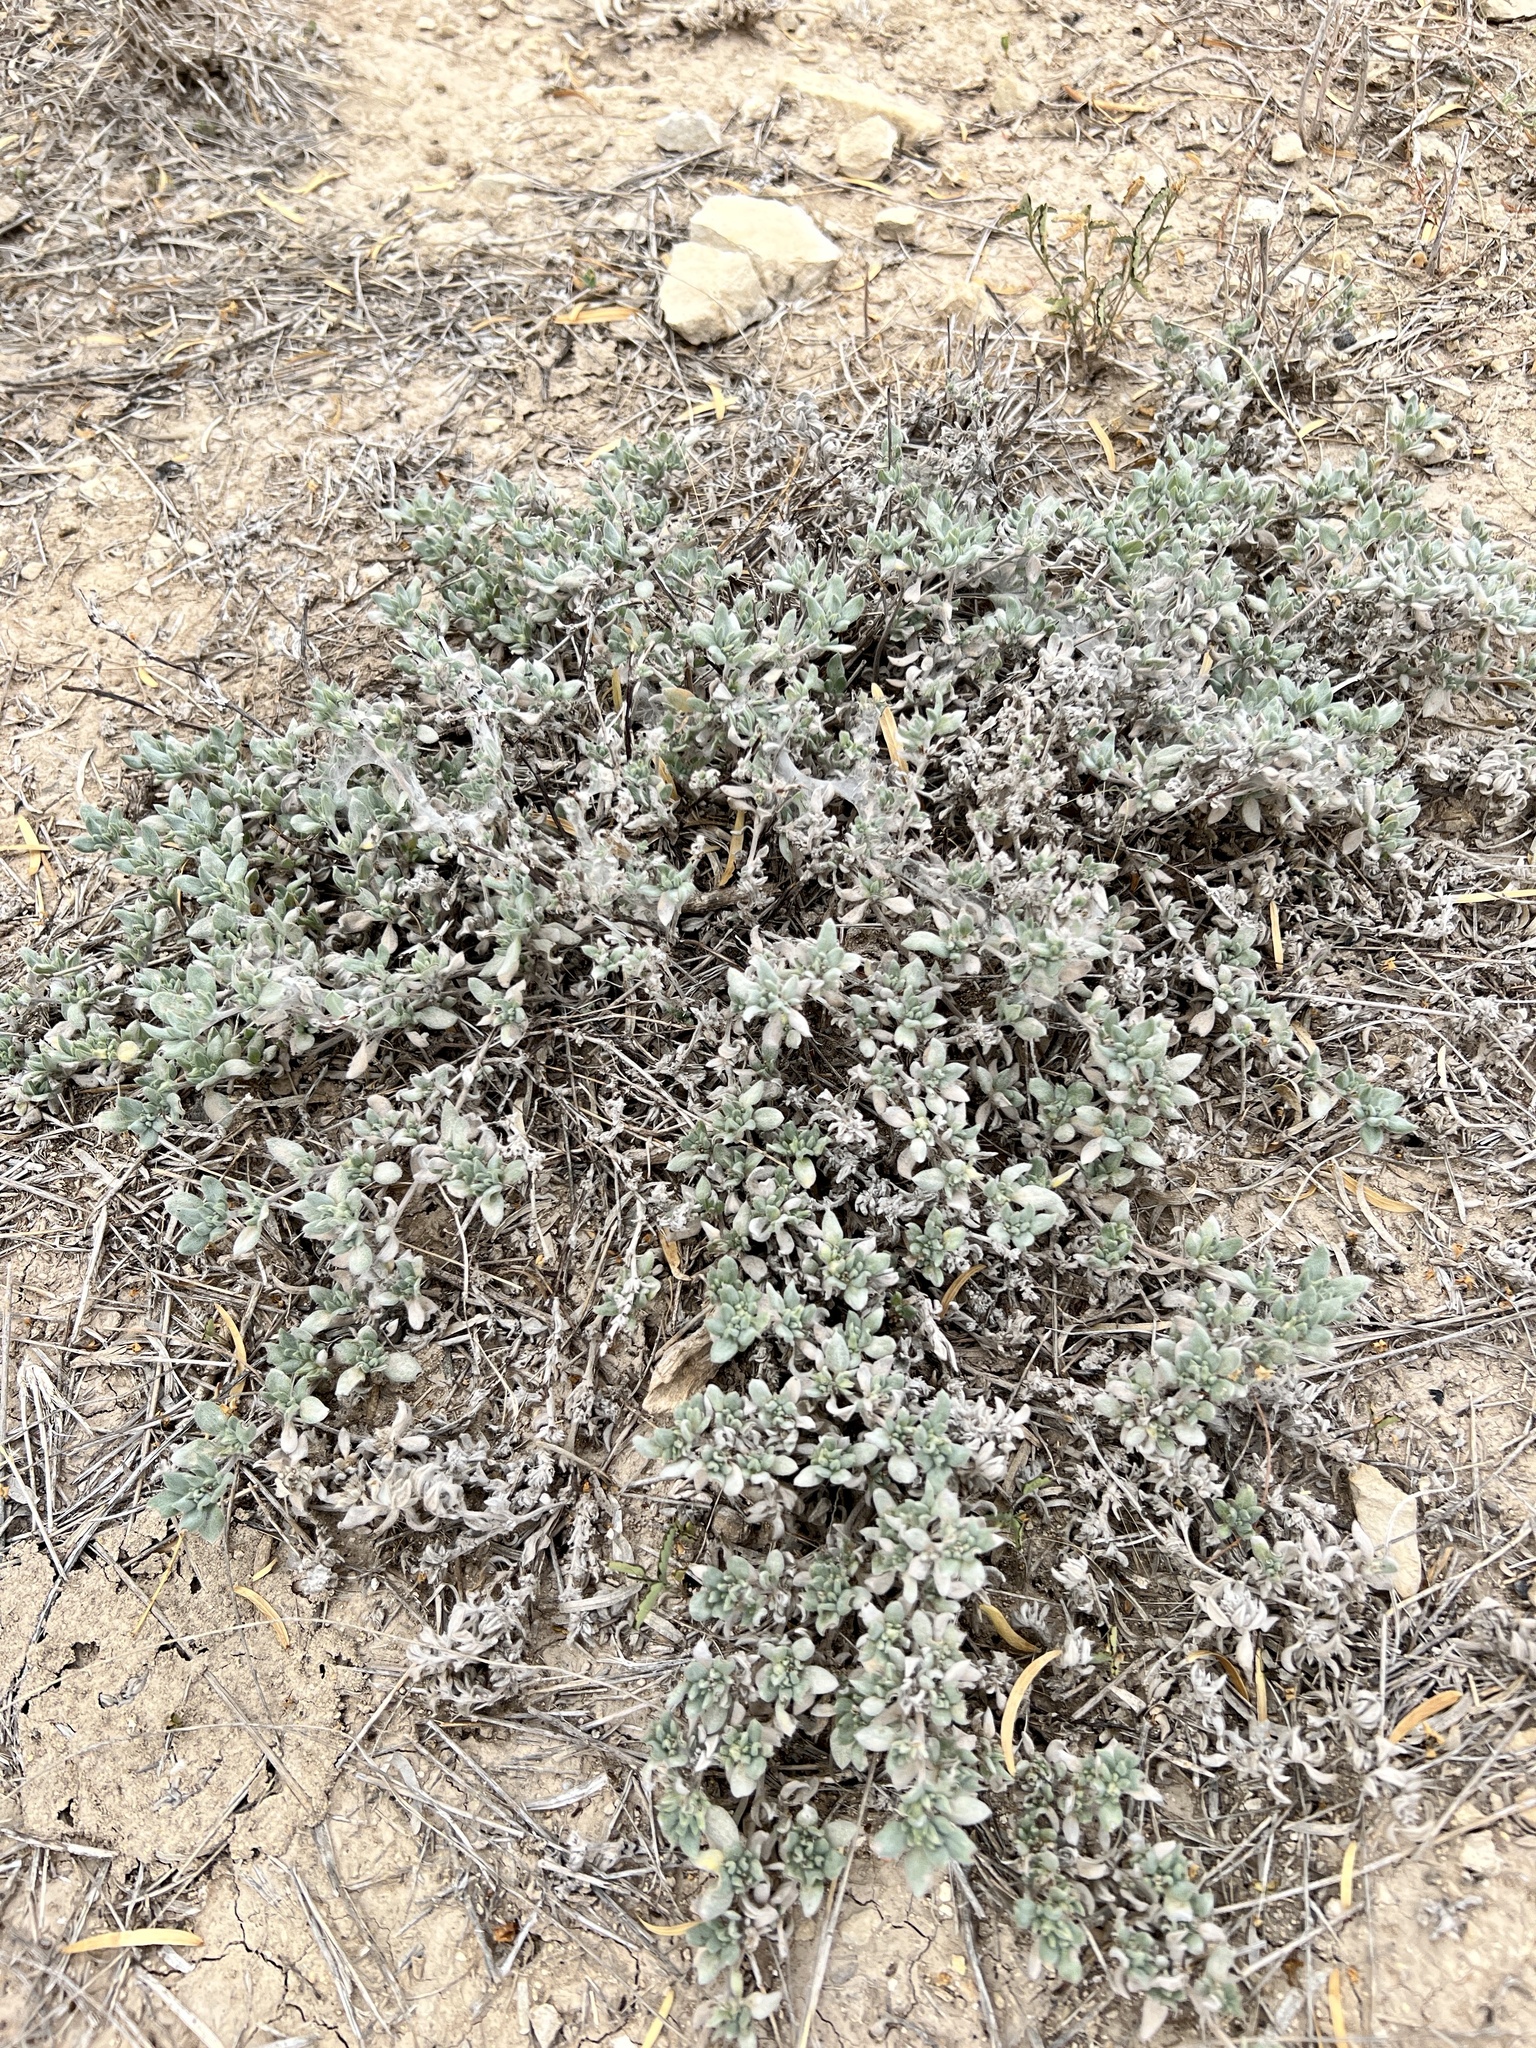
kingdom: Plantae
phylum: Tracheophyta
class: Magnoliopsida
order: Boraginales
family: Ehretiaceae
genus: Tiquilia
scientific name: Tiquilia canescens
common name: Hairy tiquilia
